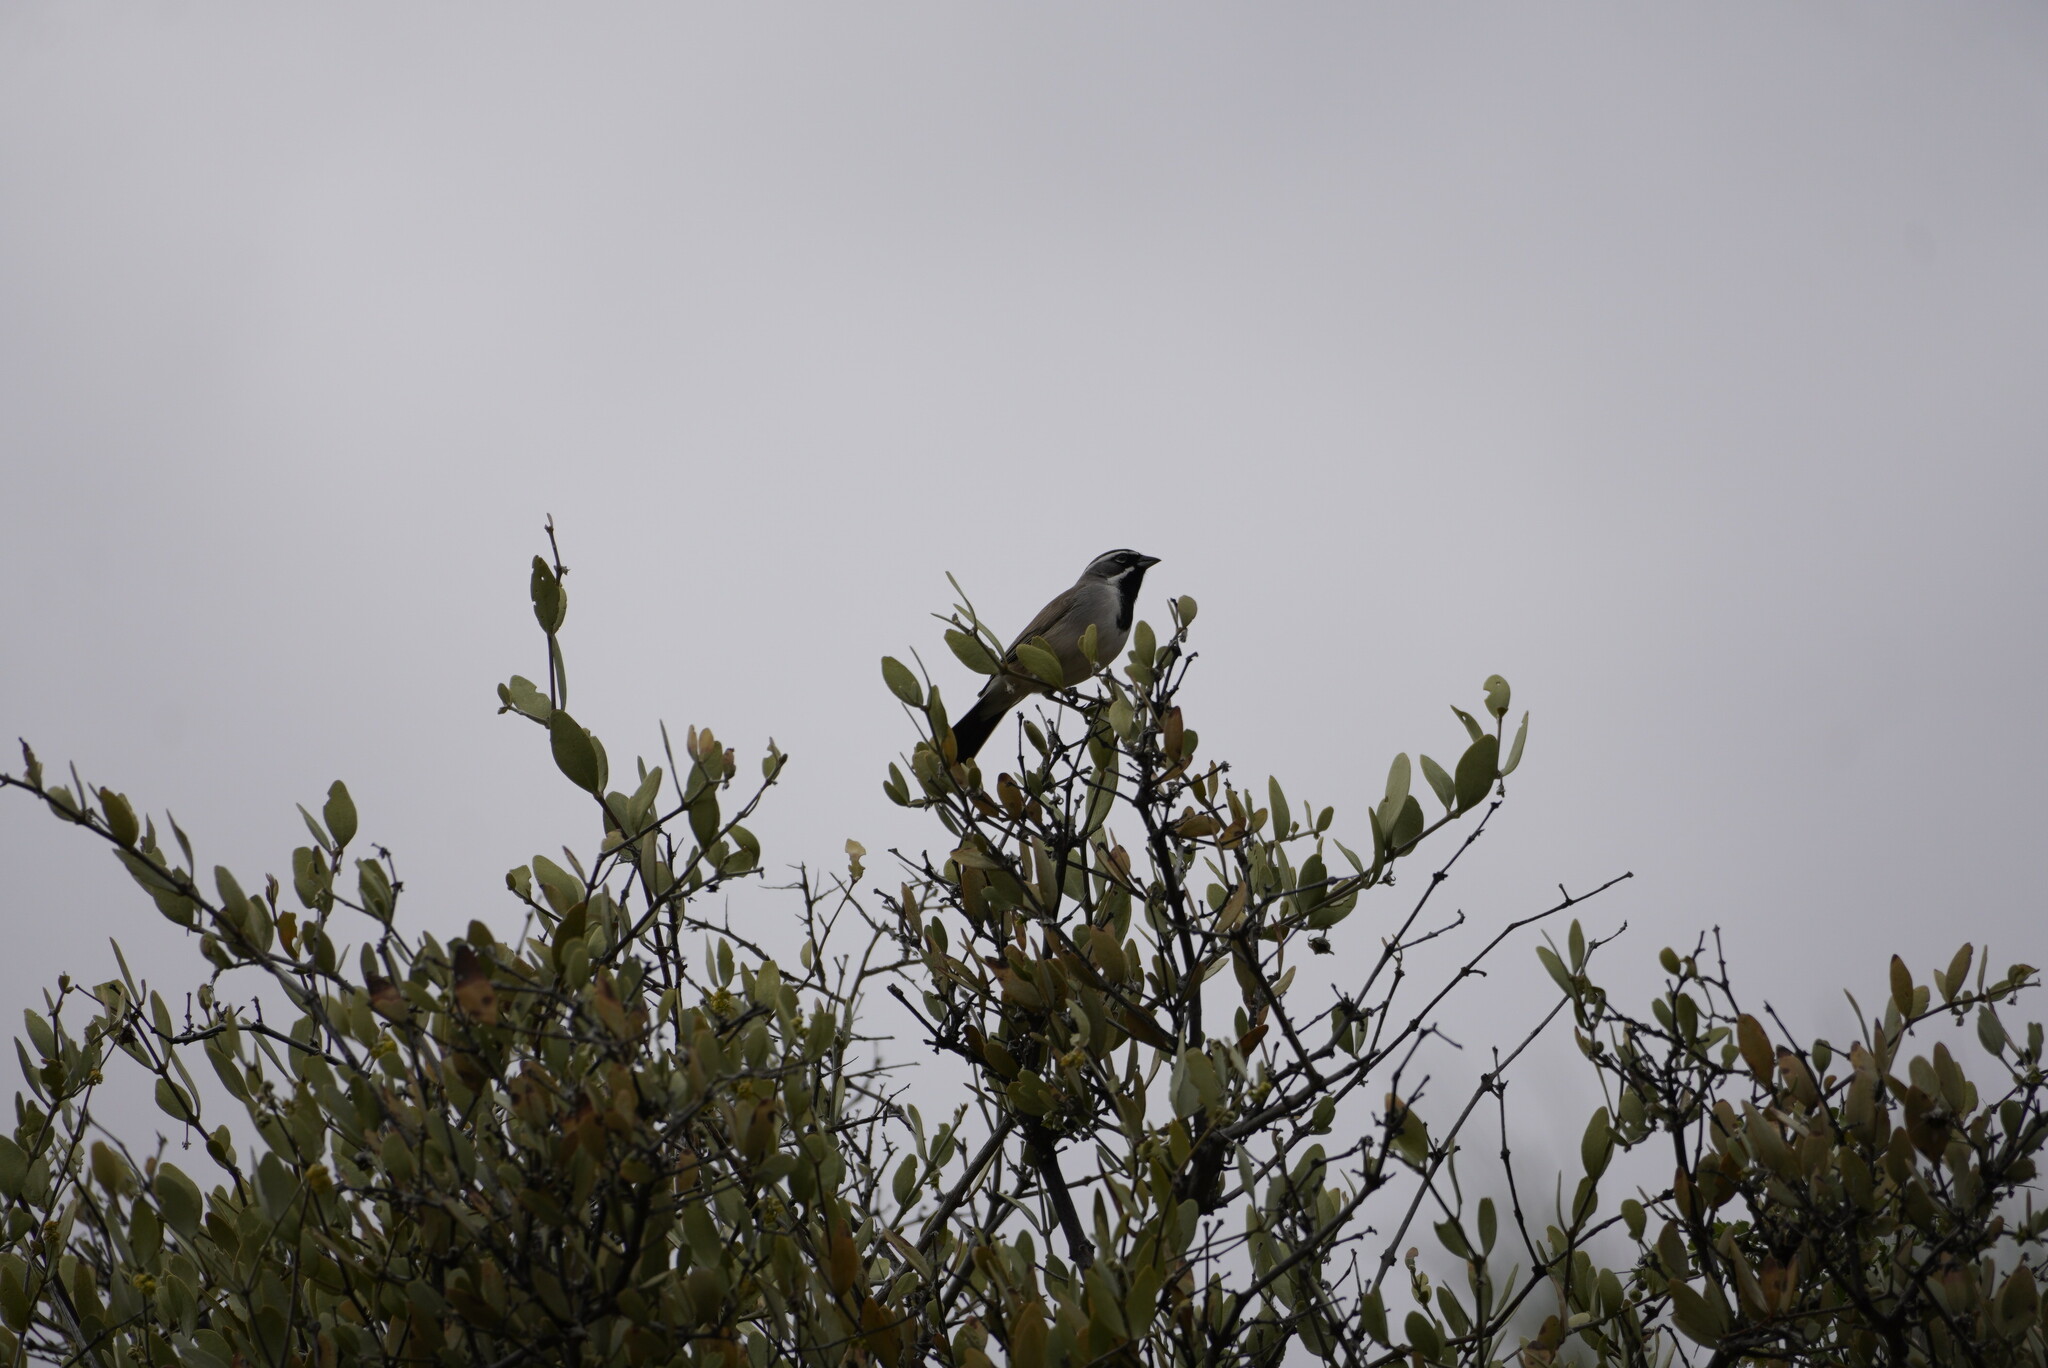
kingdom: Animalia
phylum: Chordata
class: Aves
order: Passeriformes
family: Passerellidae
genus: Amphispiza
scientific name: Amphispiza bilineata
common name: Black-throated sparrow
